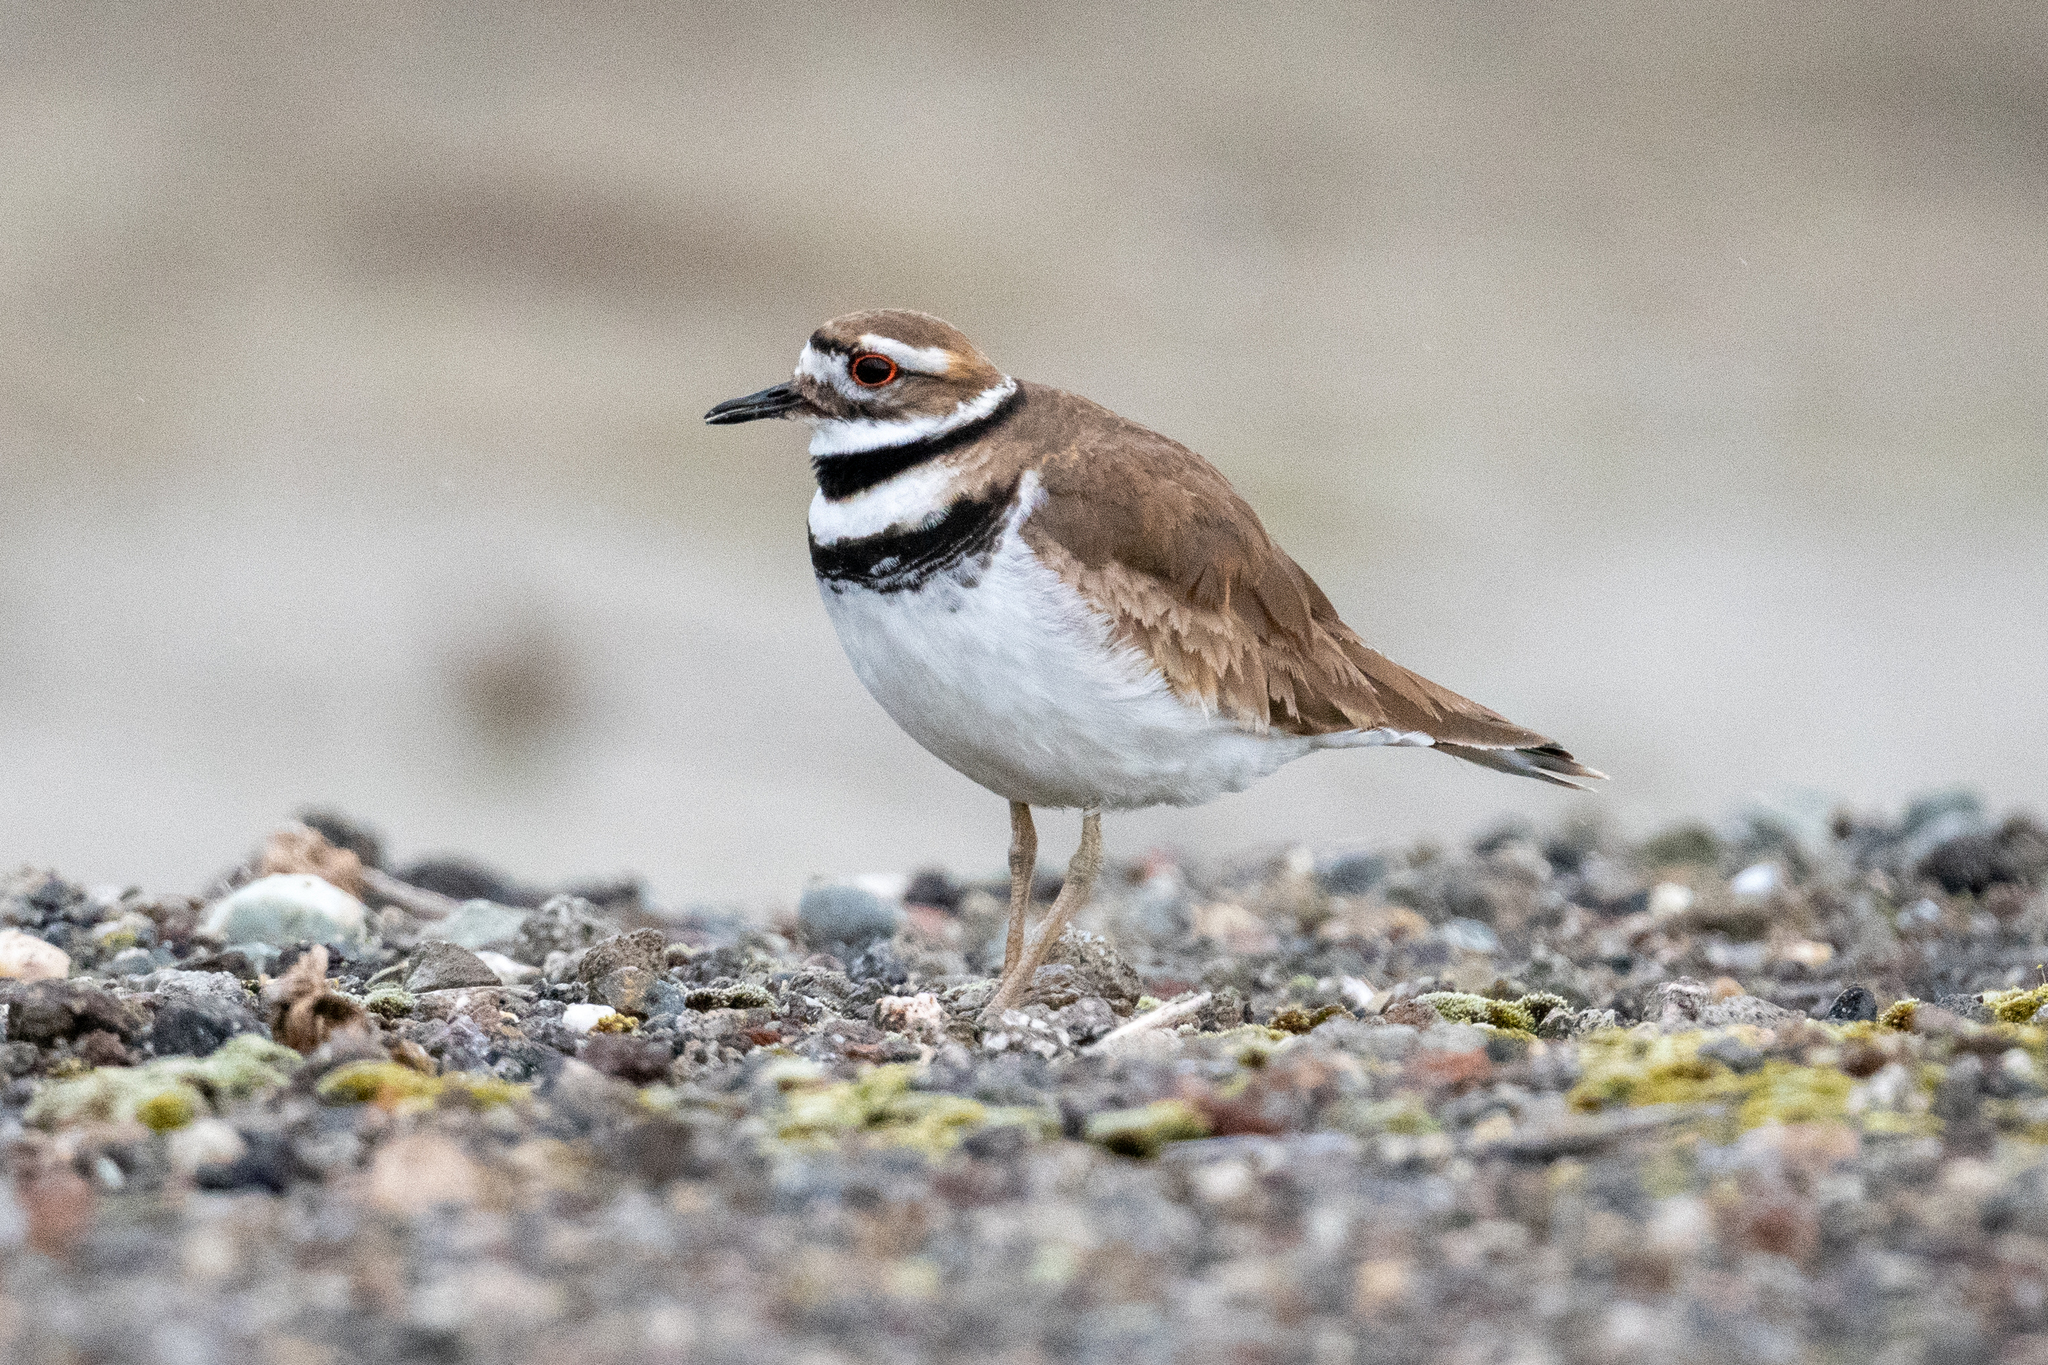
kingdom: Animalia
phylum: Chordata
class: Aves
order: Charadriiformes
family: Charadriidae
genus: Charadrius
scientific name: Charadrius vociferus
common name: Killdeer
